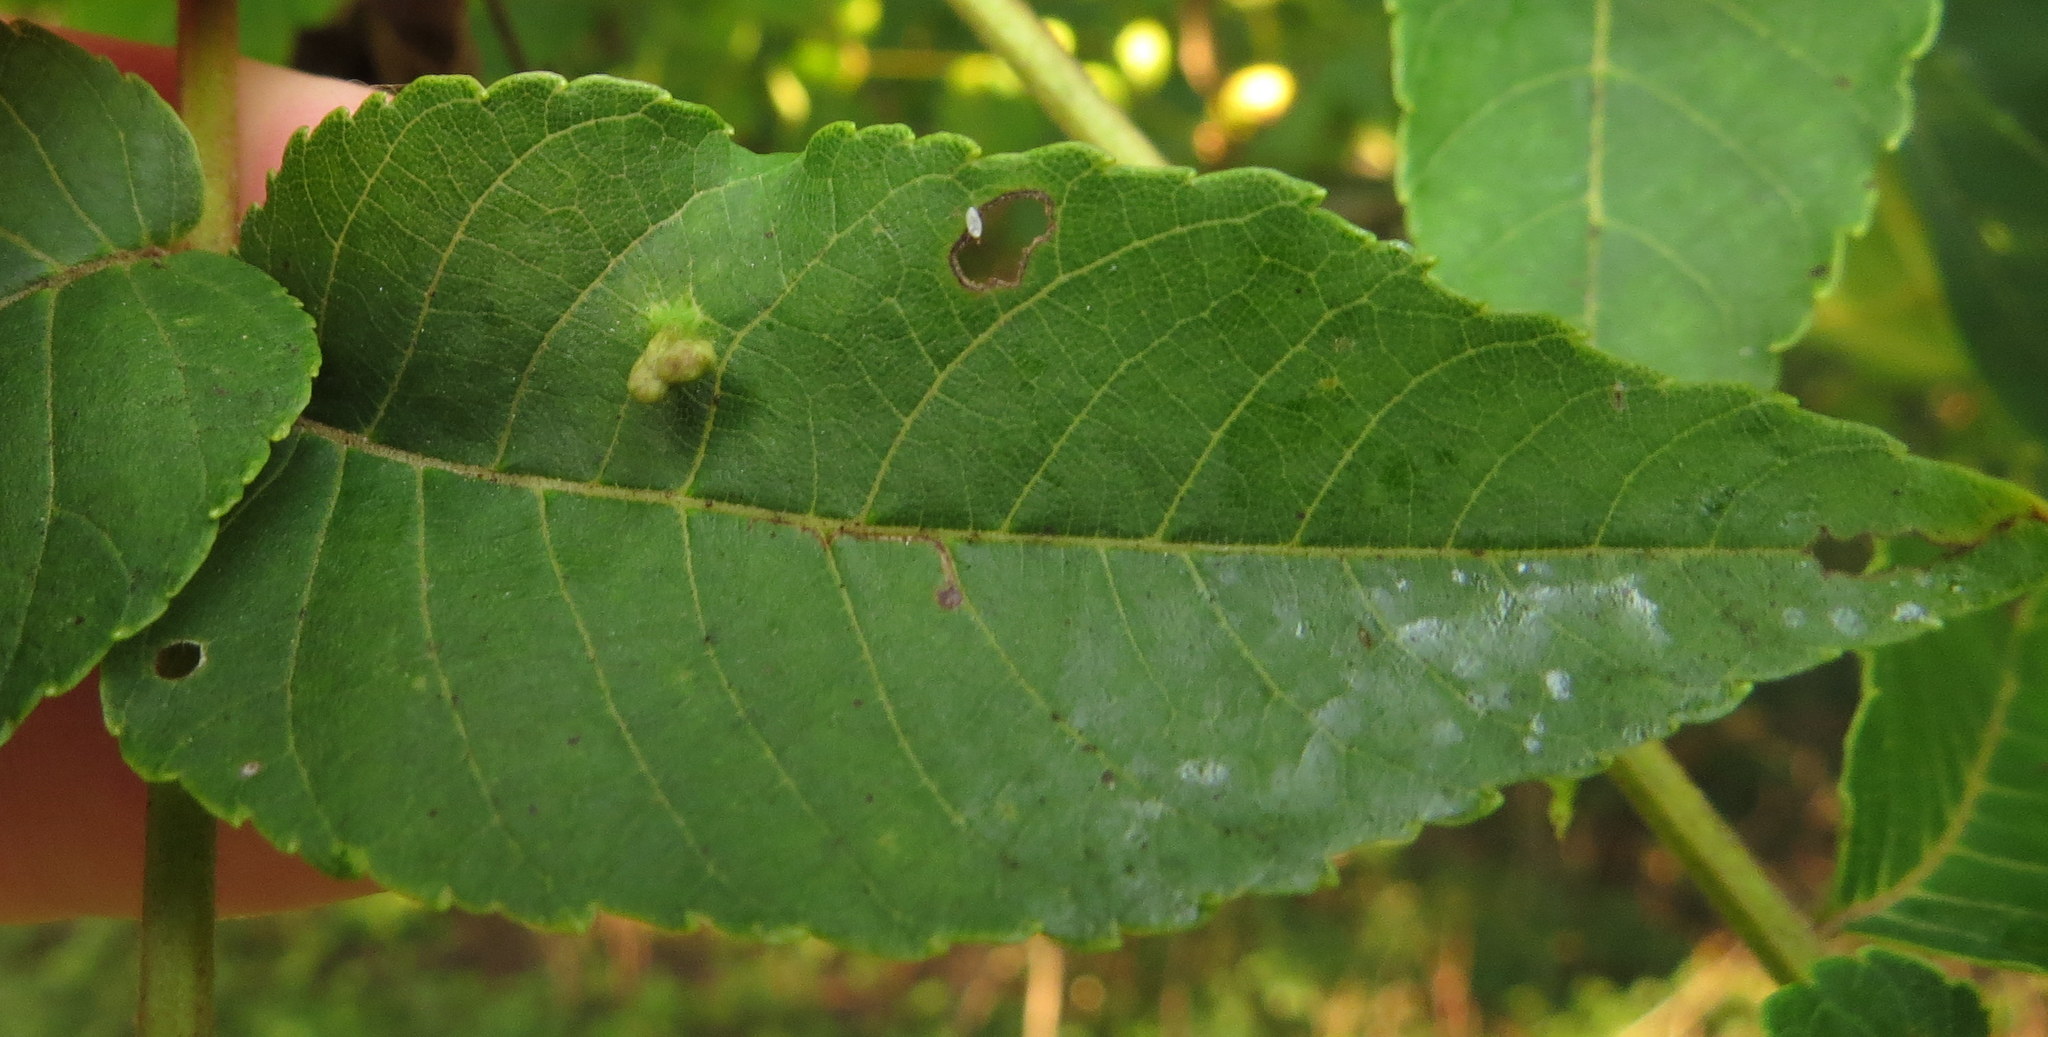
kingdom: Animalia
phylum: Arthropoda
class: Arachnida
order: Trombidiformes
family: Eriophyidae
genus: Aceria
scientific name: Aceria brachytarsus
